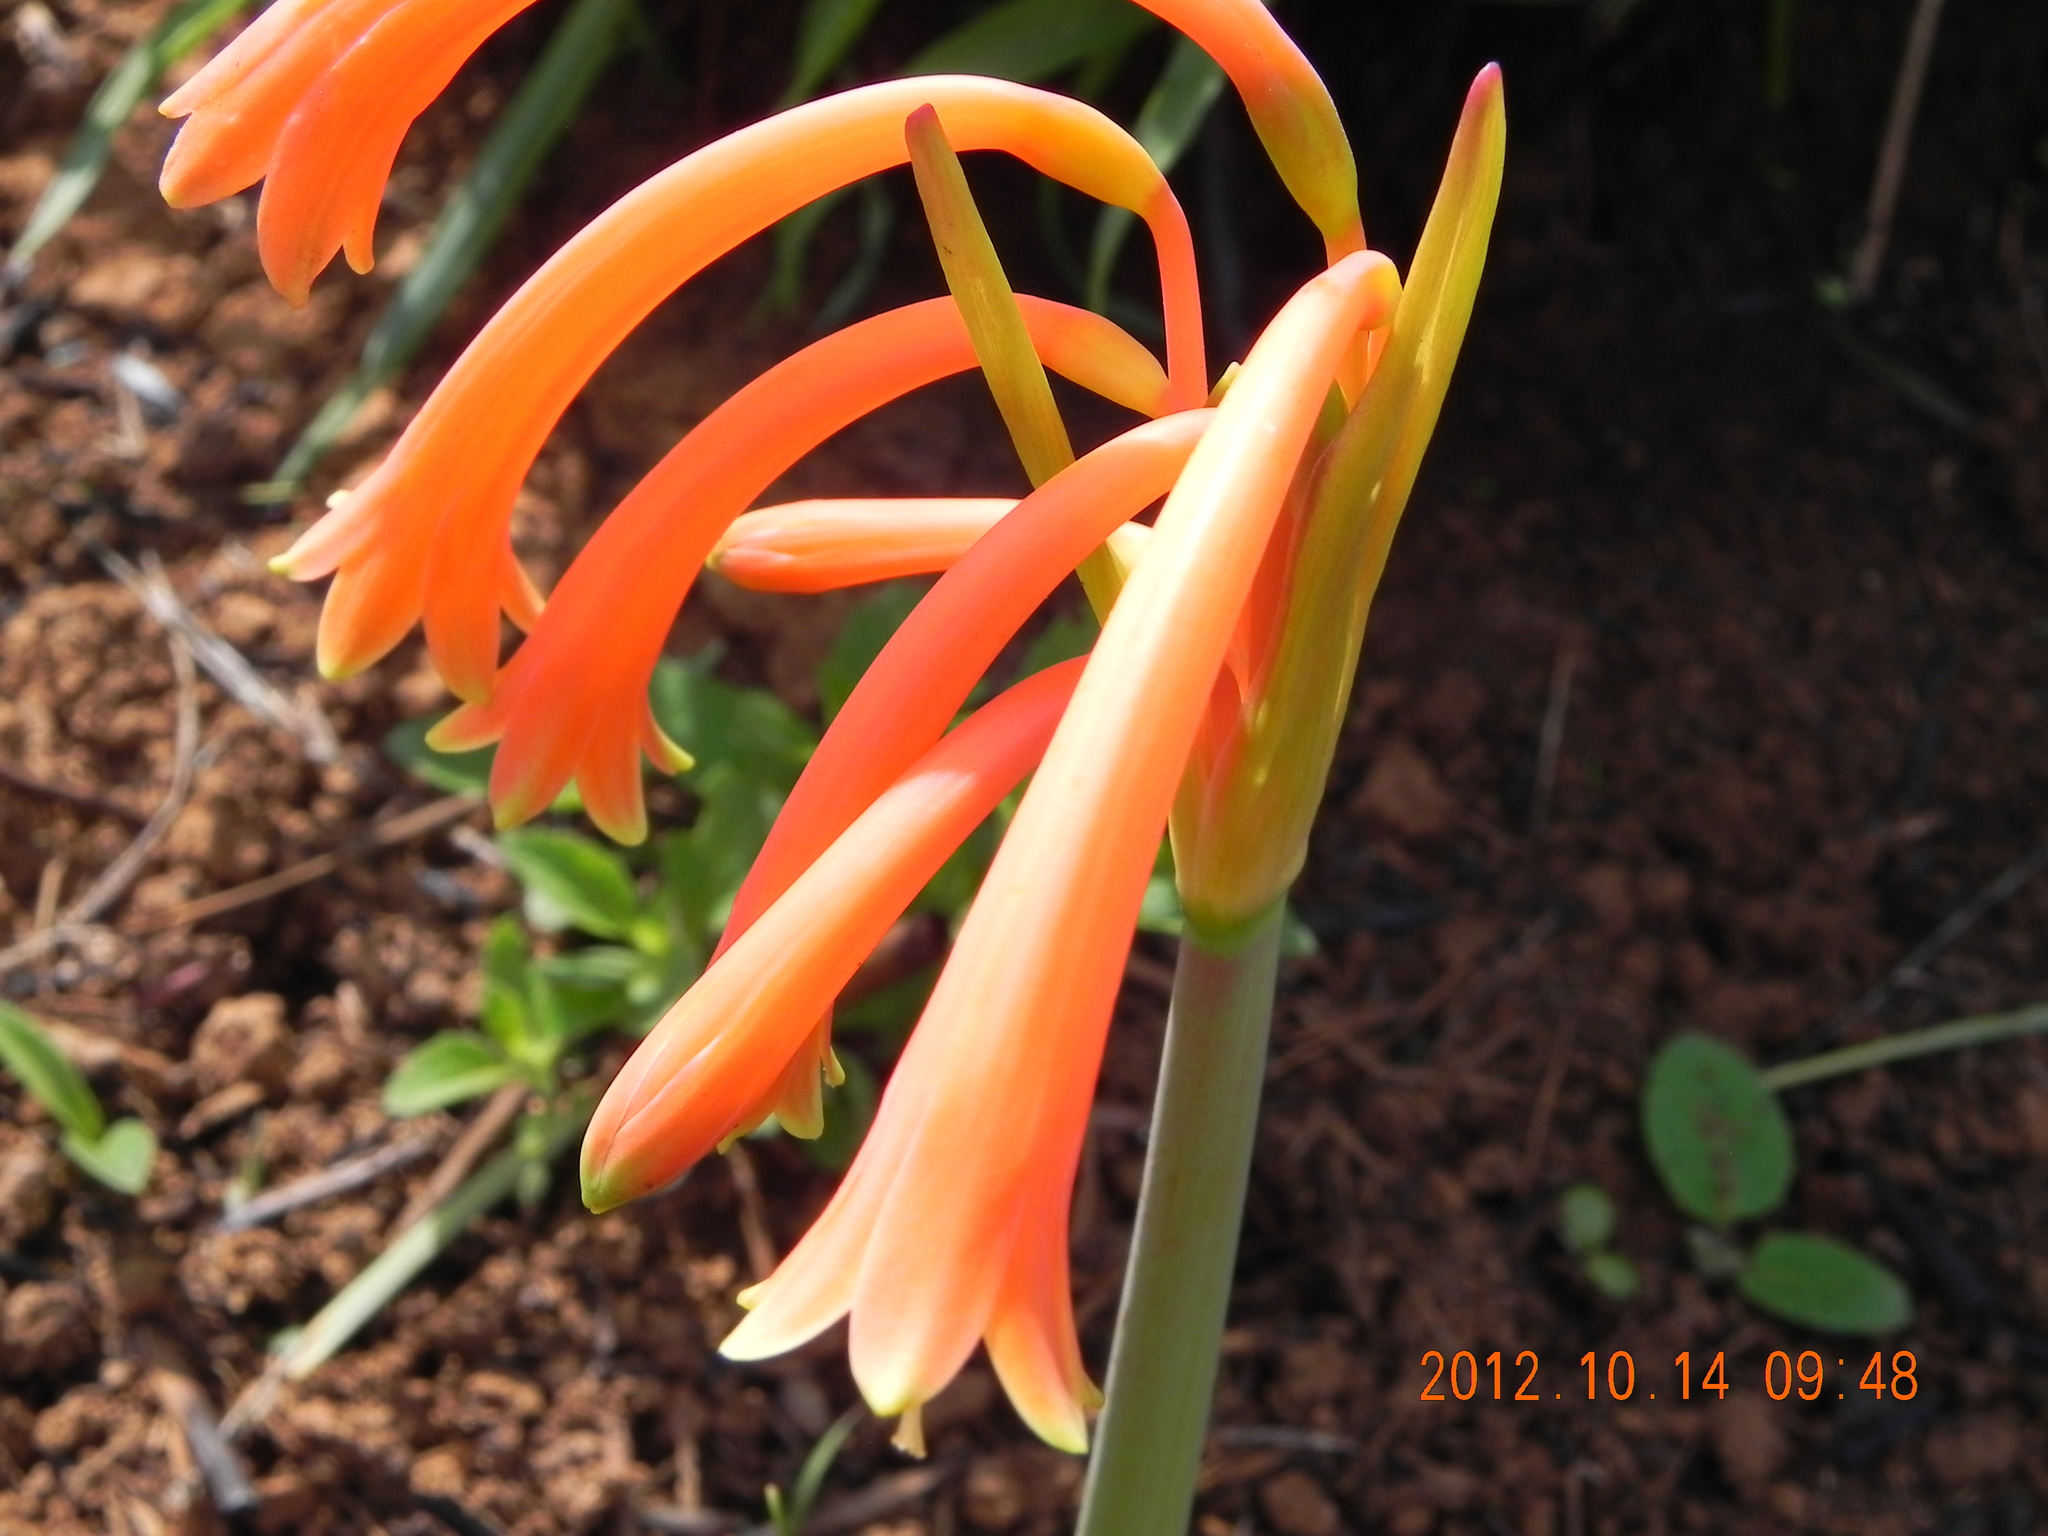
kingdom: Plantae
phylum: Tracheophyta
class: Liliopsida
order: Asparagales
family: Amaryllidaceae
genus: Cyrtanthus
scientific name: Cyrtanthus tuckii
